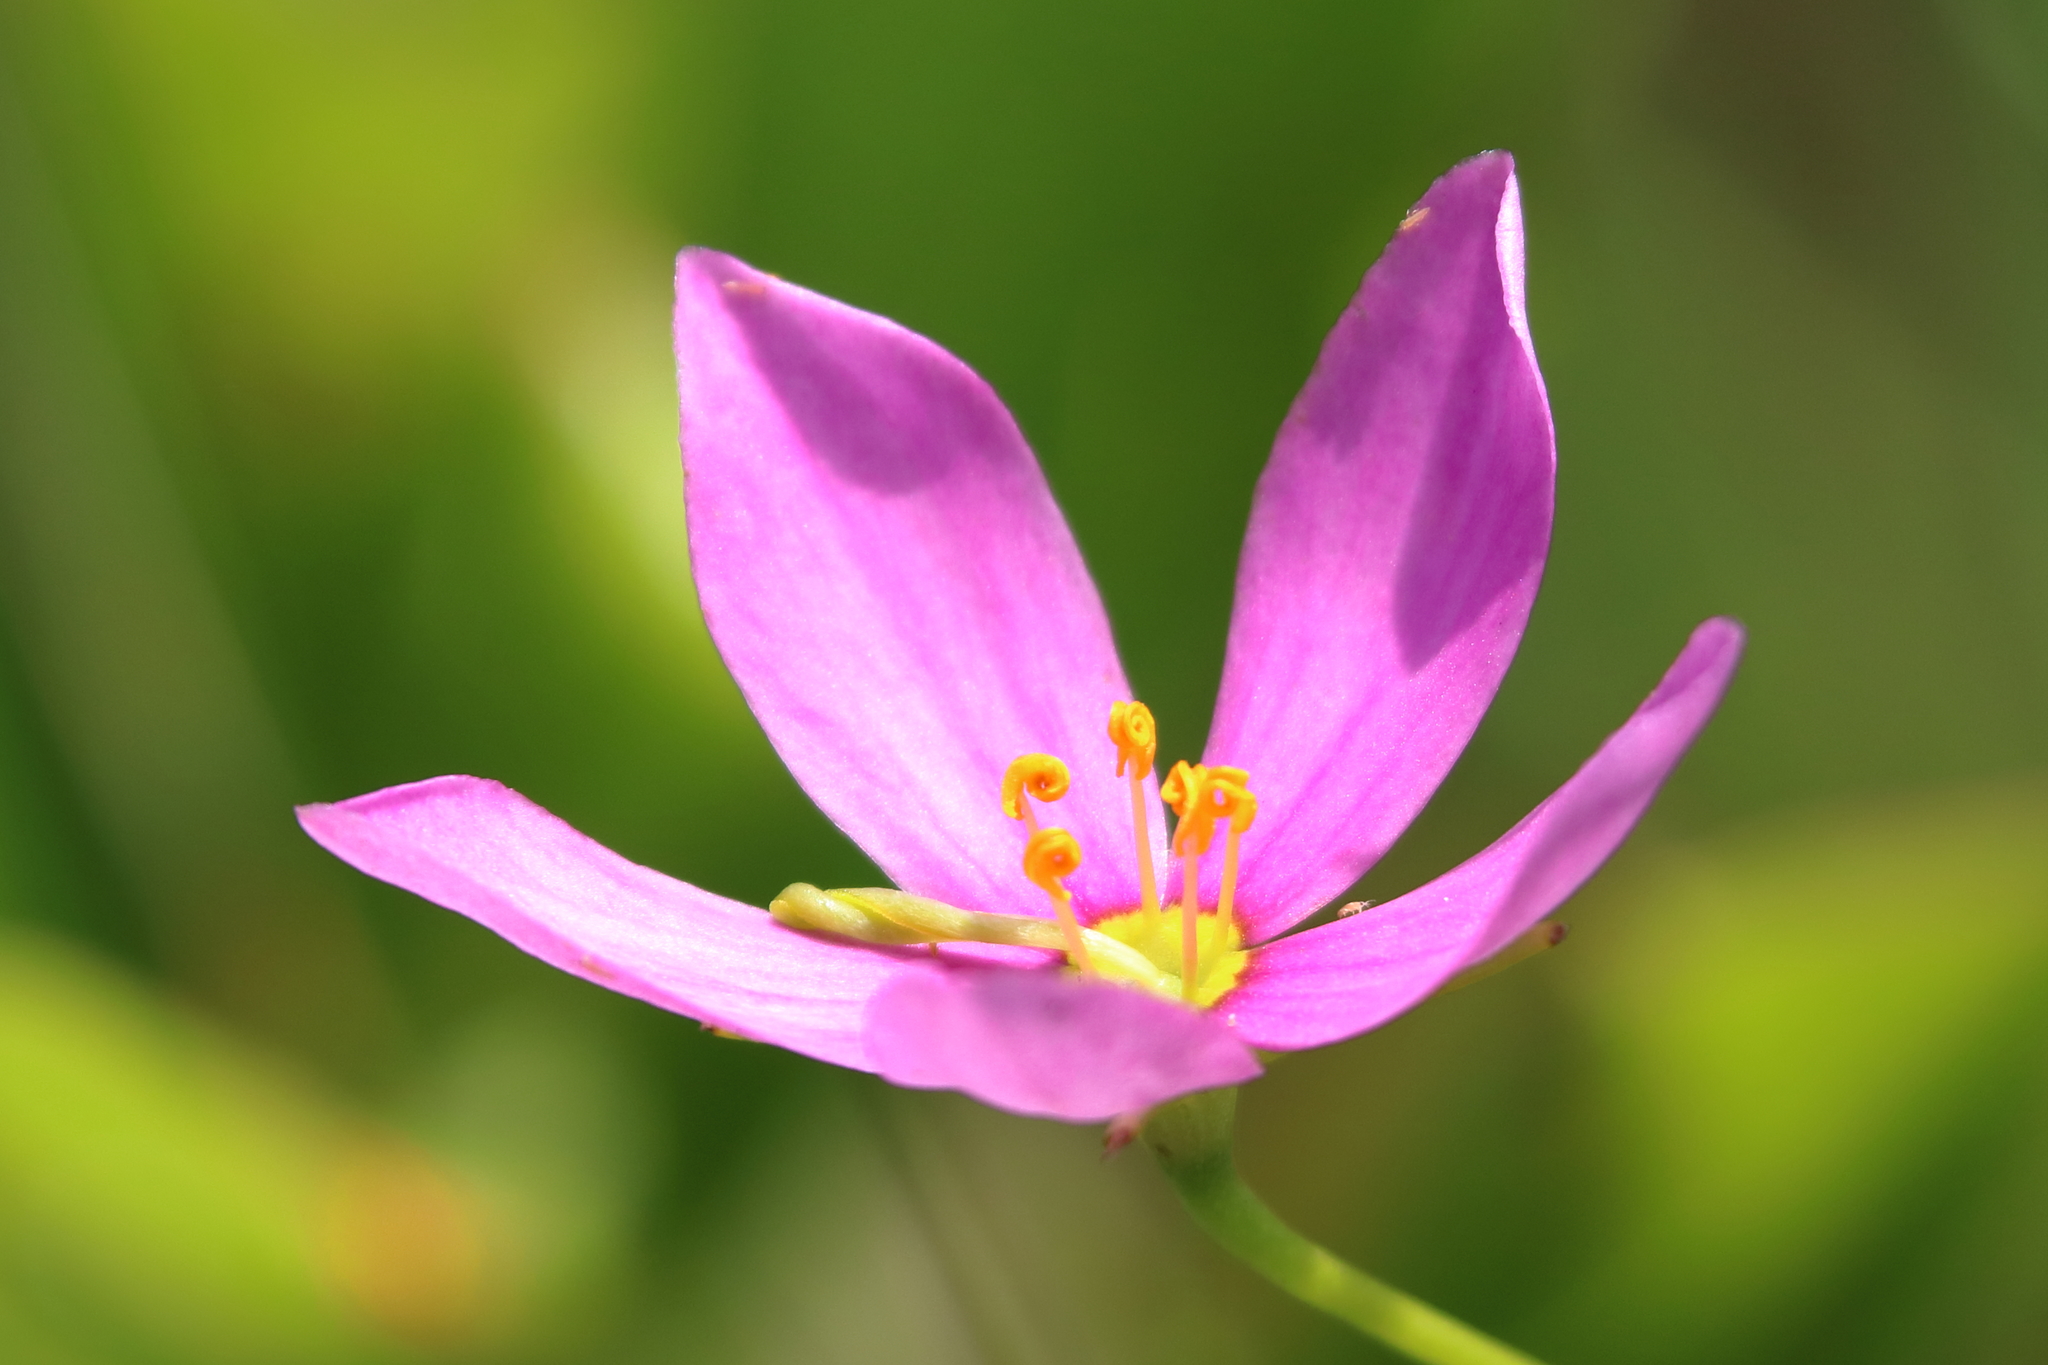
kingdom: Plantae
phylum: Tracheophyta
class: Magnoliopsida
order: Gentianales
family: Gentianaceae
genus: Sabatia
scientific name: Sabatia stellaris
